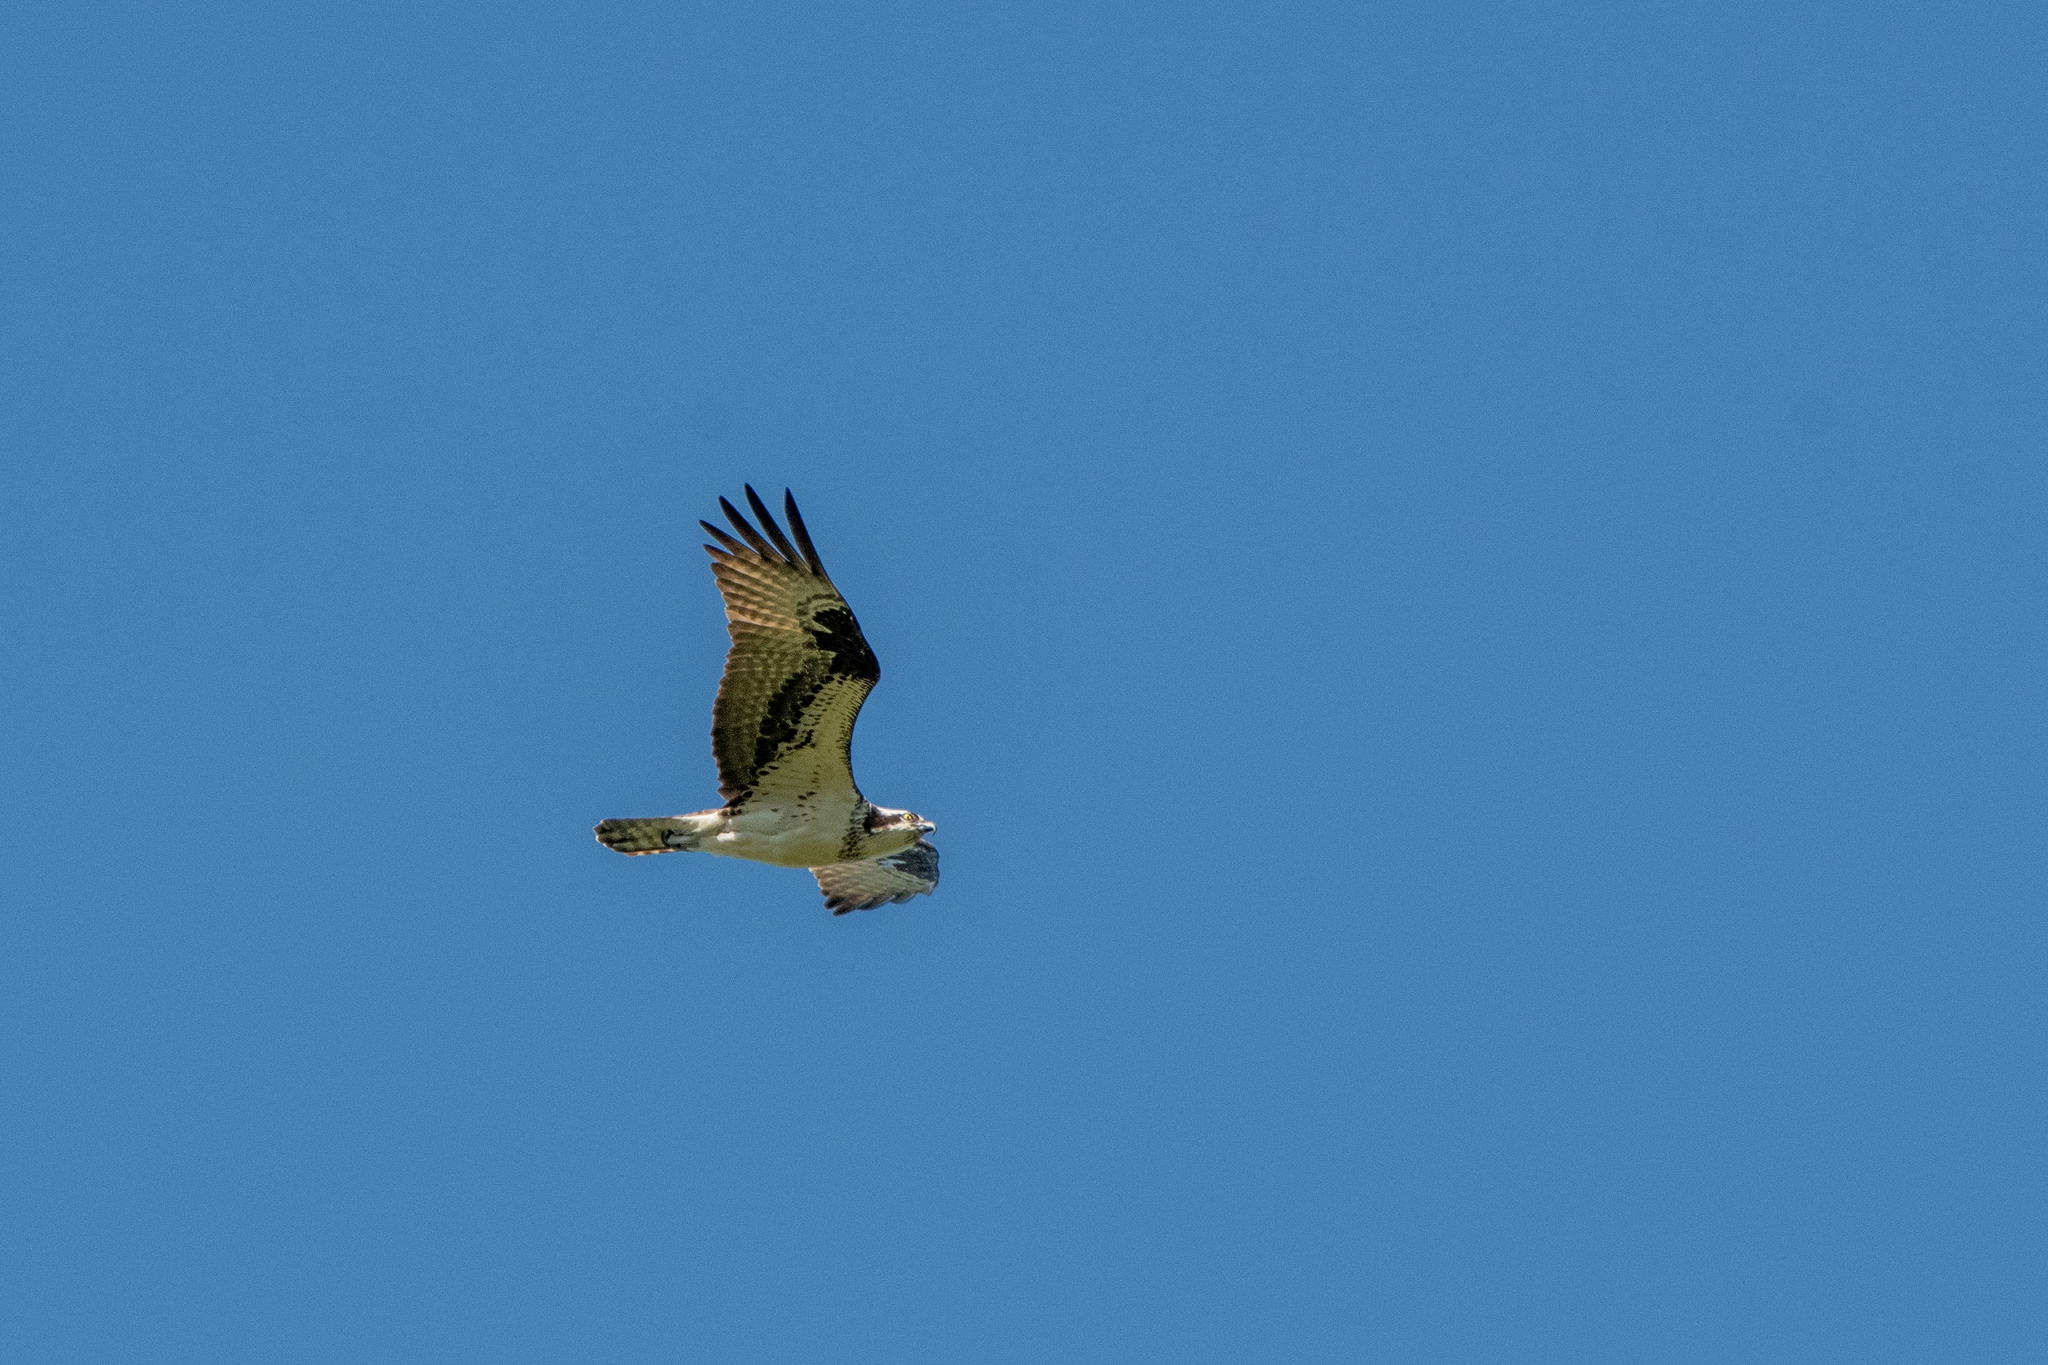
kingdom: Animalia
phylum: Chordata
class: Aves
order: Accipitriformes
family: Pandionidae
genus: Pandion
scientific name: Pandion haliaetus
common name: Osprey
